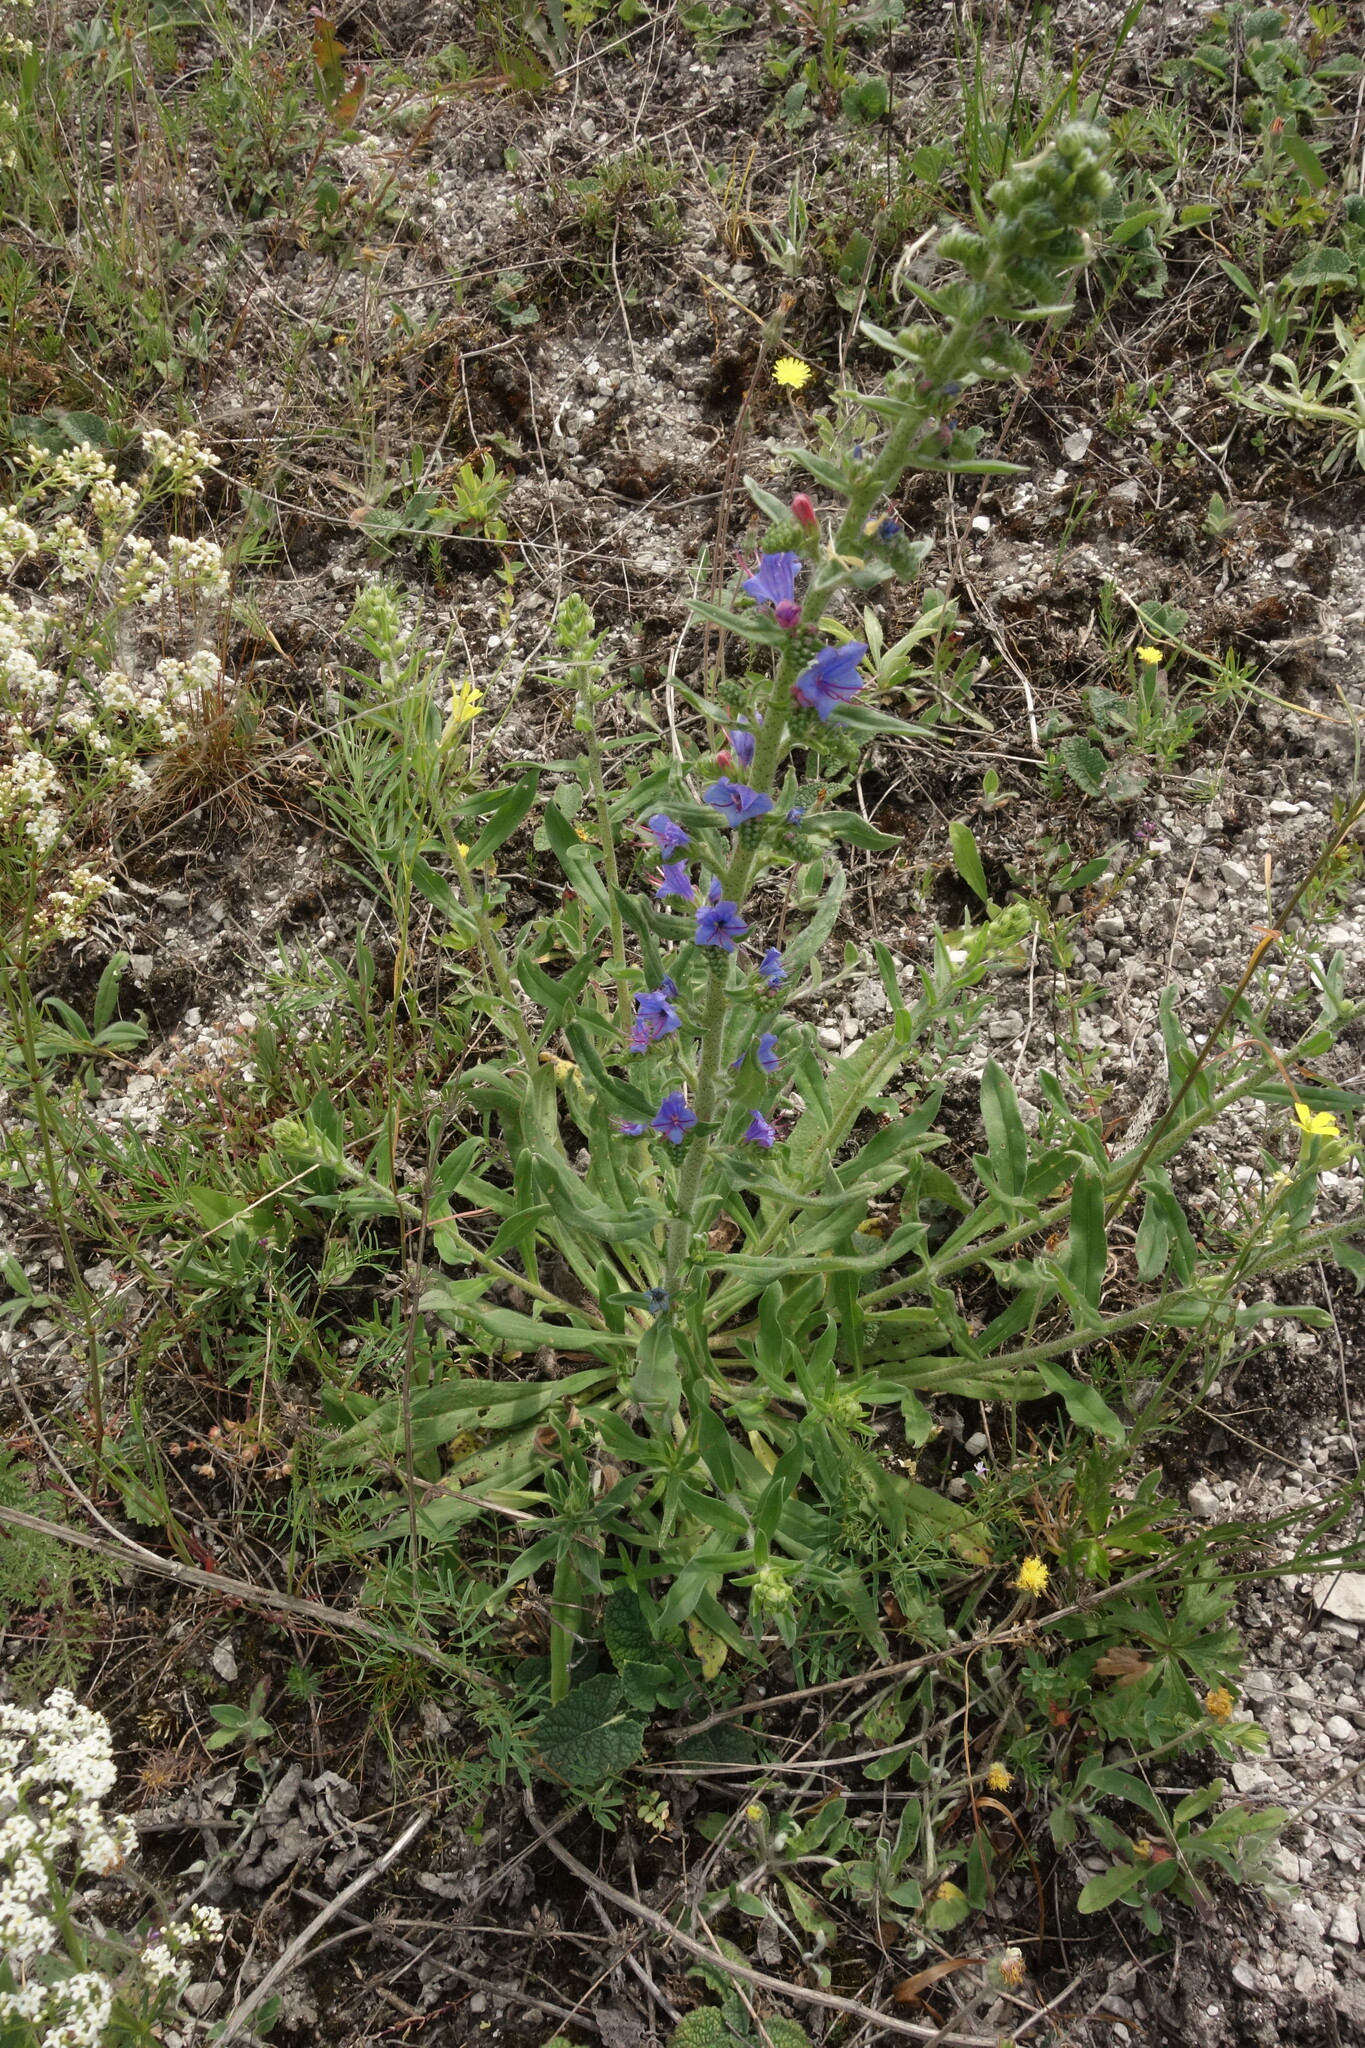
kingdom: Plantae
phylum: Tracheophyta
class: Magnoliopsida
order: Boraginales
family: Boraginaceae
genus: Echium
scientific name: Echium vulgare
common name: Common viper's bugloss
